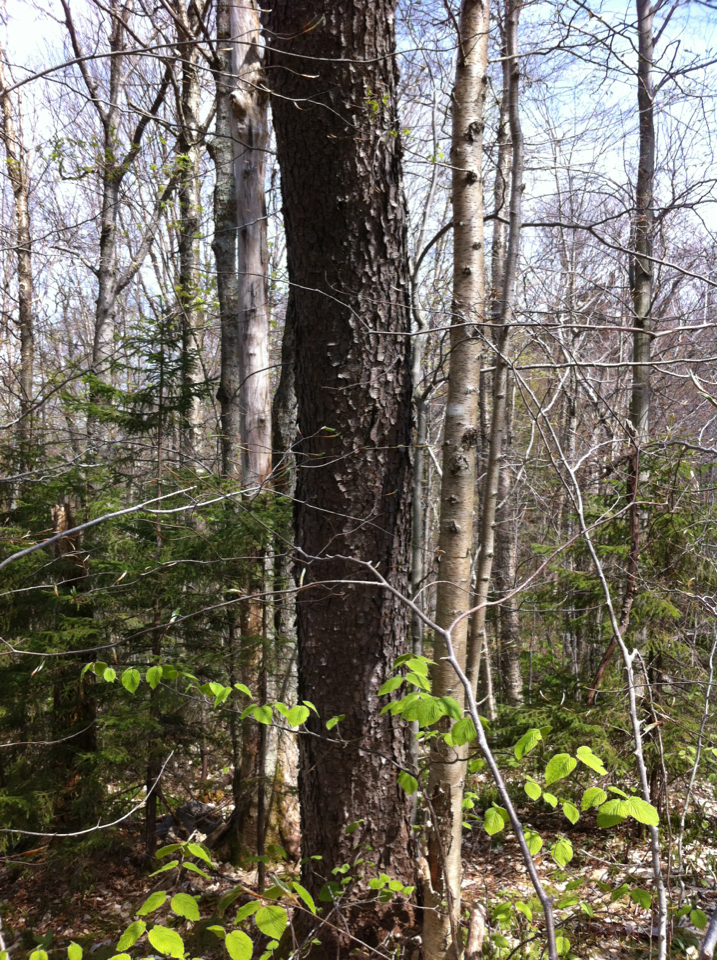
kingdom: Plantae
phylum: Tracheophyta
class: Magnoliopsida
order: Rosales
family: Rosaceae
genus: Prunus
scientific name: Prunus serotina
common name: Black cherry
